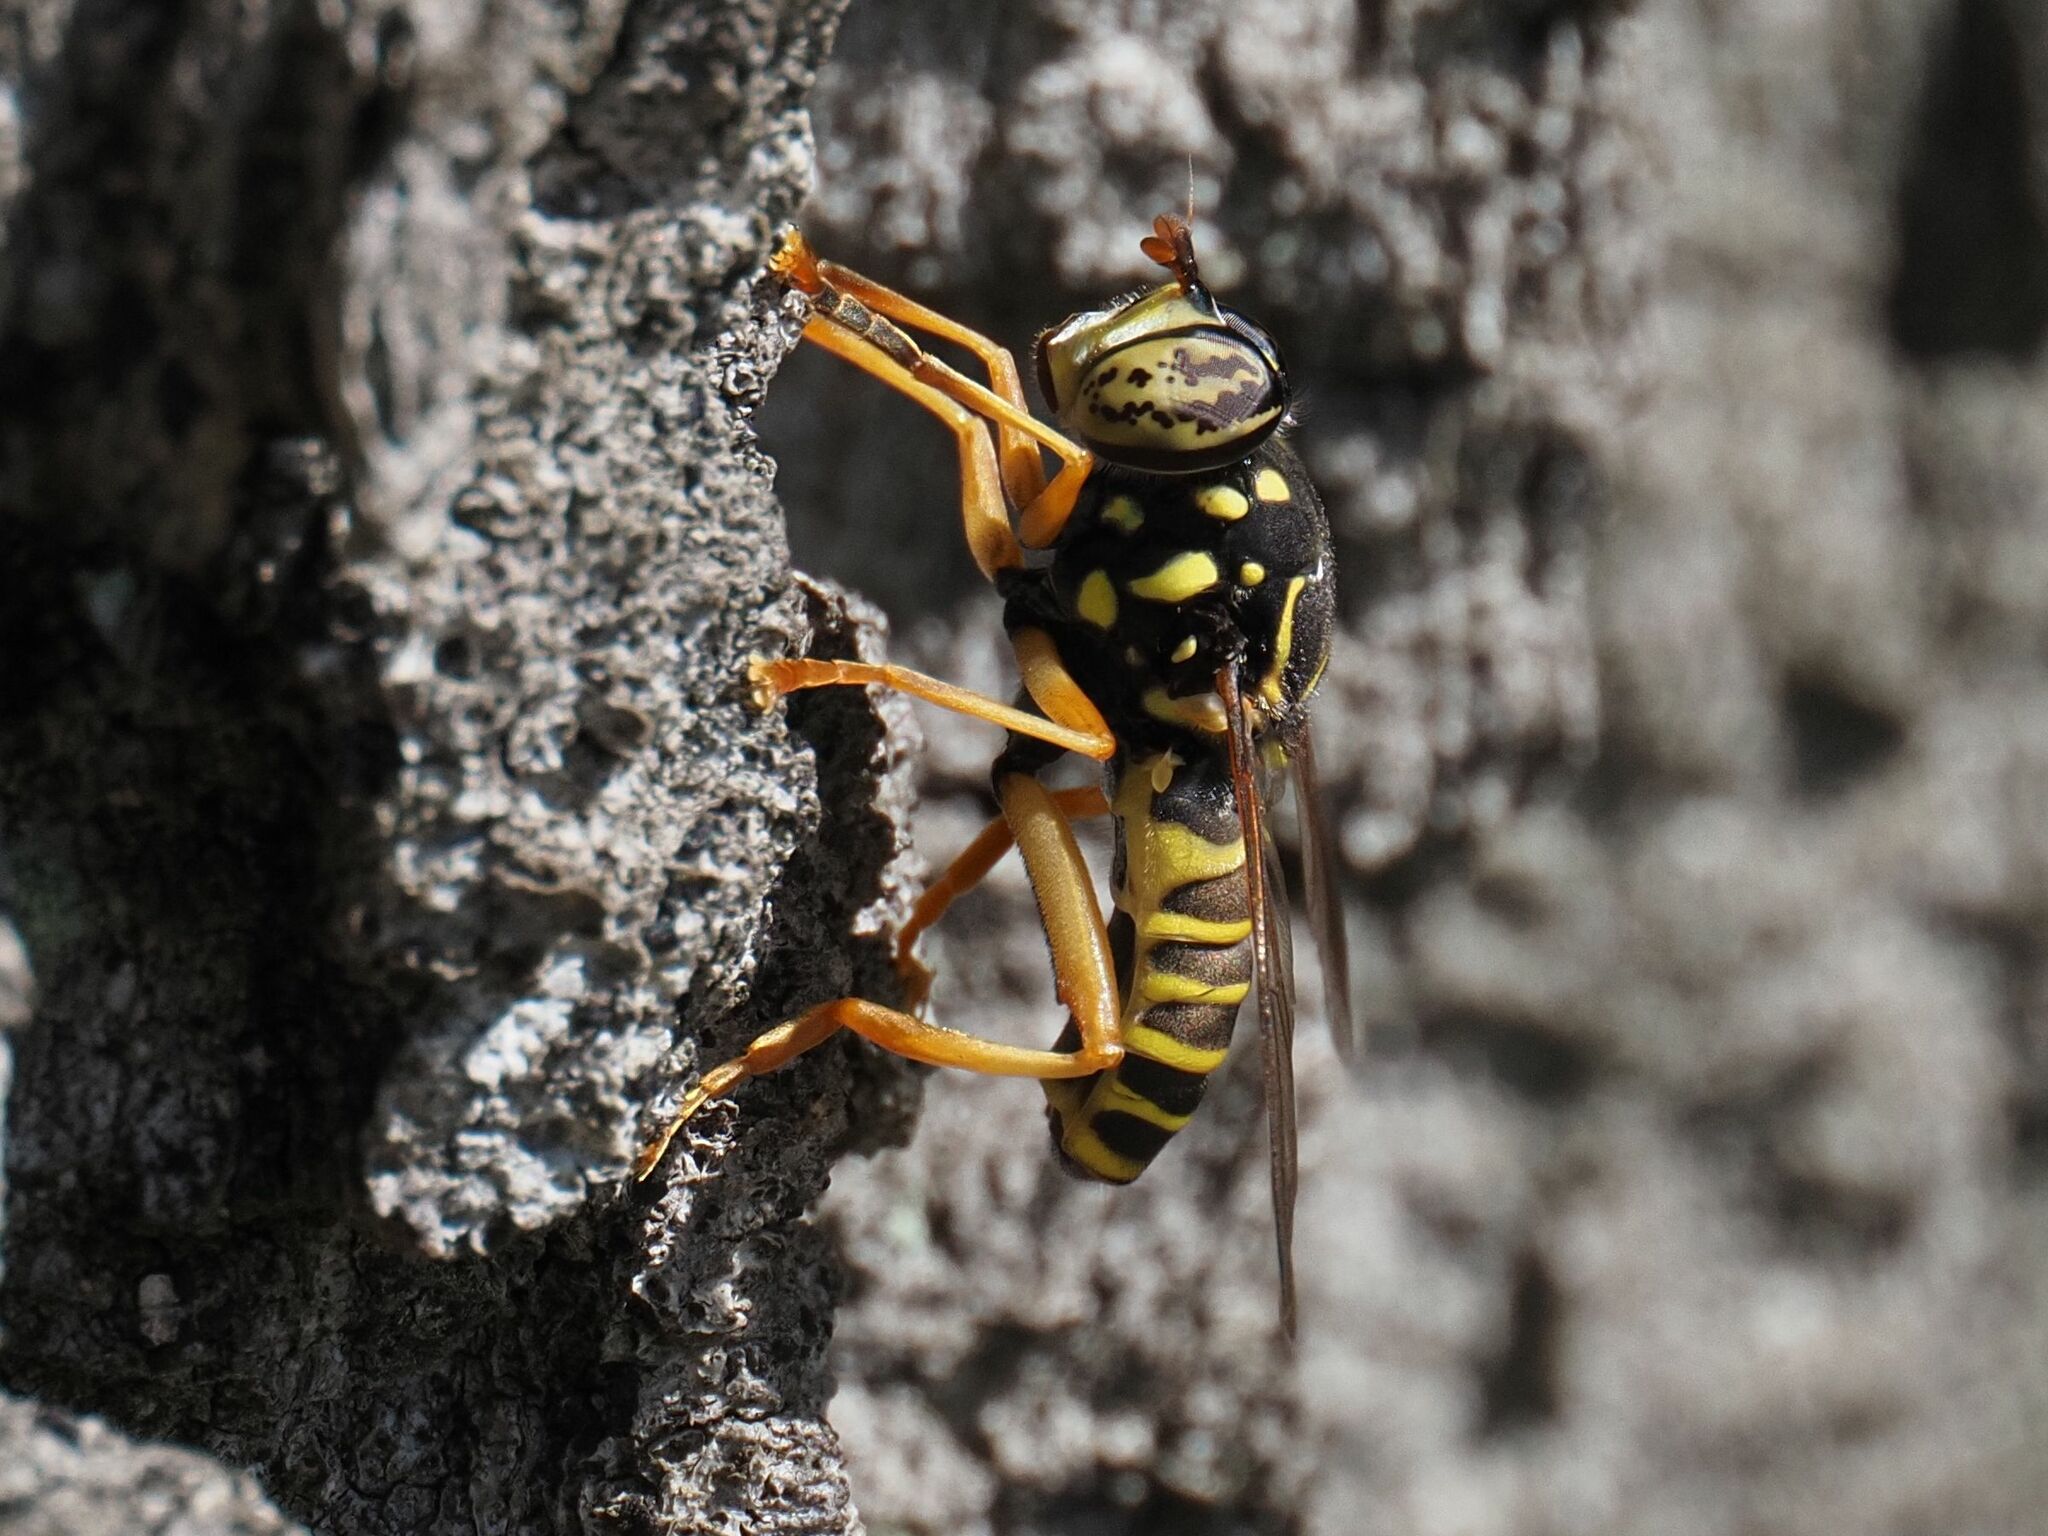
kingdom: Animalia
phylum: Arthropoda
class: Insecta
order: Diptera
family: Syrphidae
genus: Spilomyia
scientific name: Spilomyia saltuum
